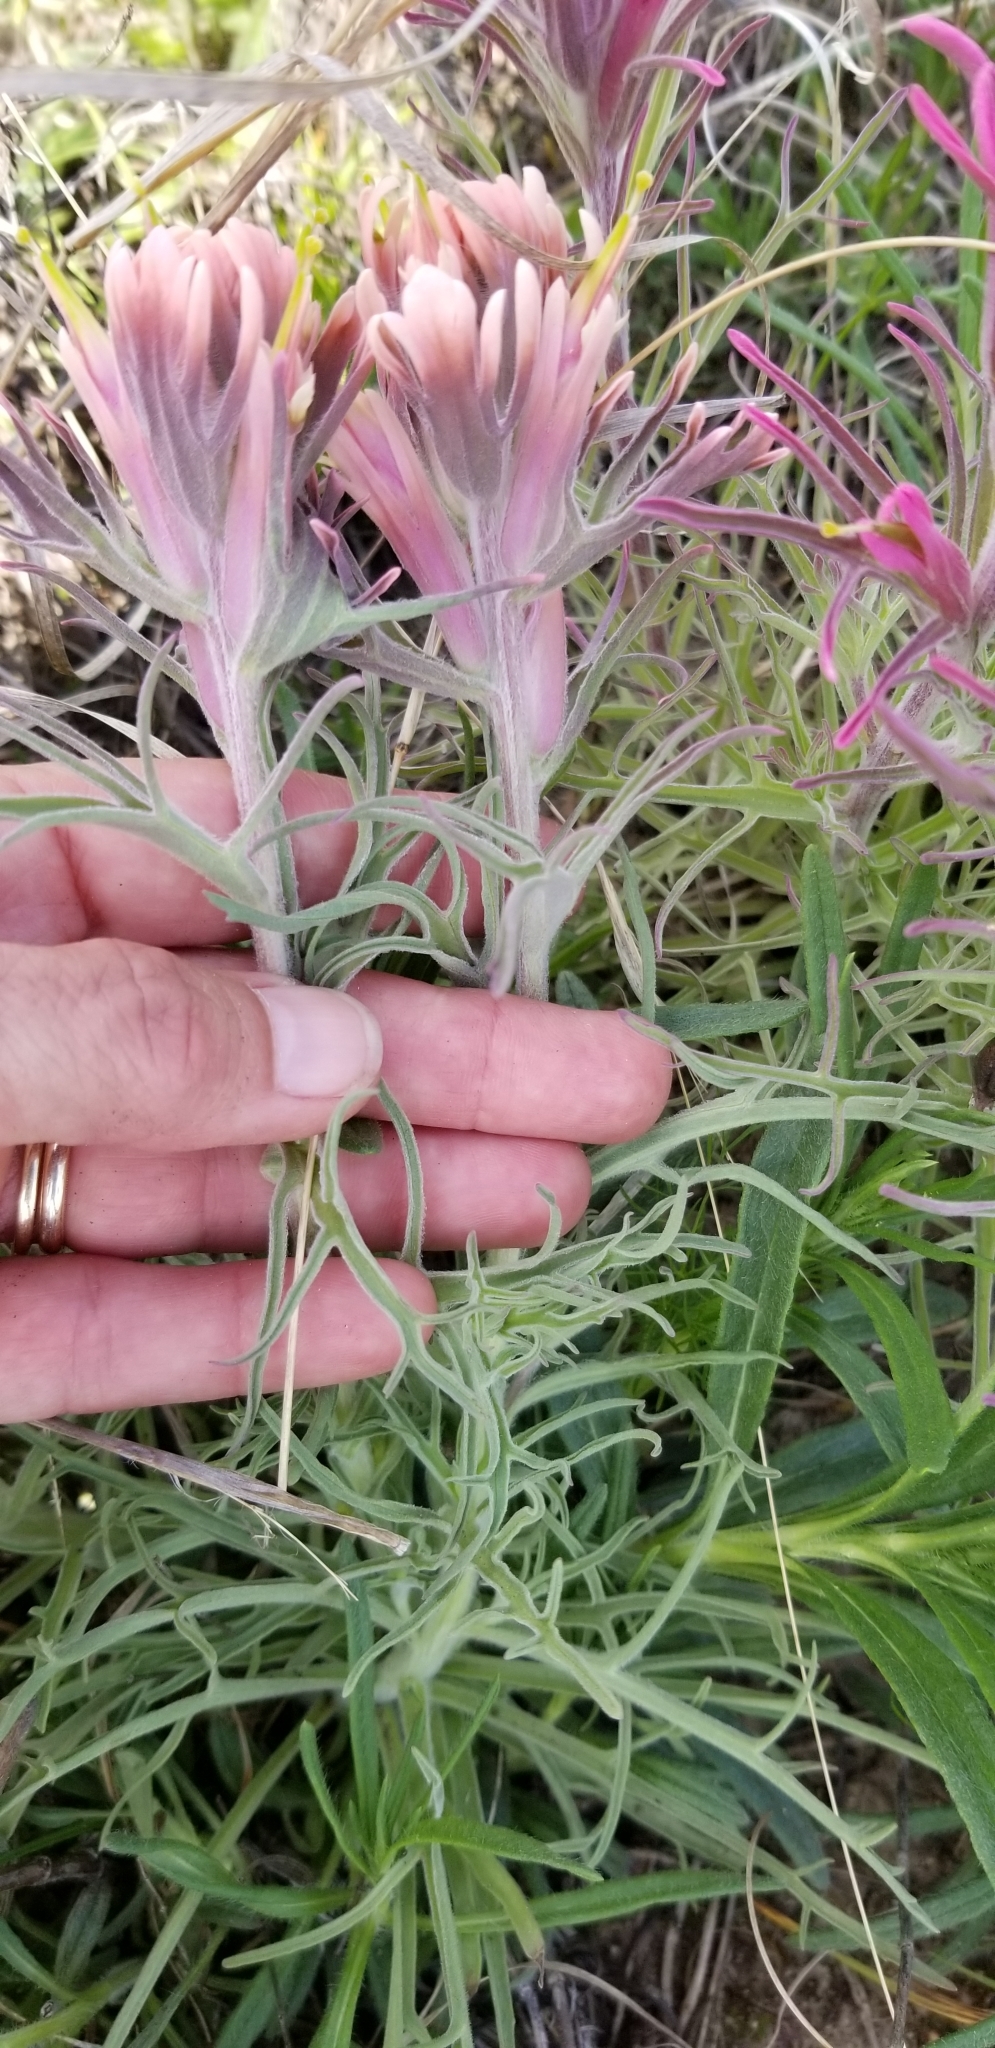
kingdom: Plantae
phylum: Tracheophyta
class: Magnoliopsida
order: Lamiales
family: Orobanchaceae
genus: Castilleja
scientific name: Castilleja purpurea
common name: Plains paintbrush
